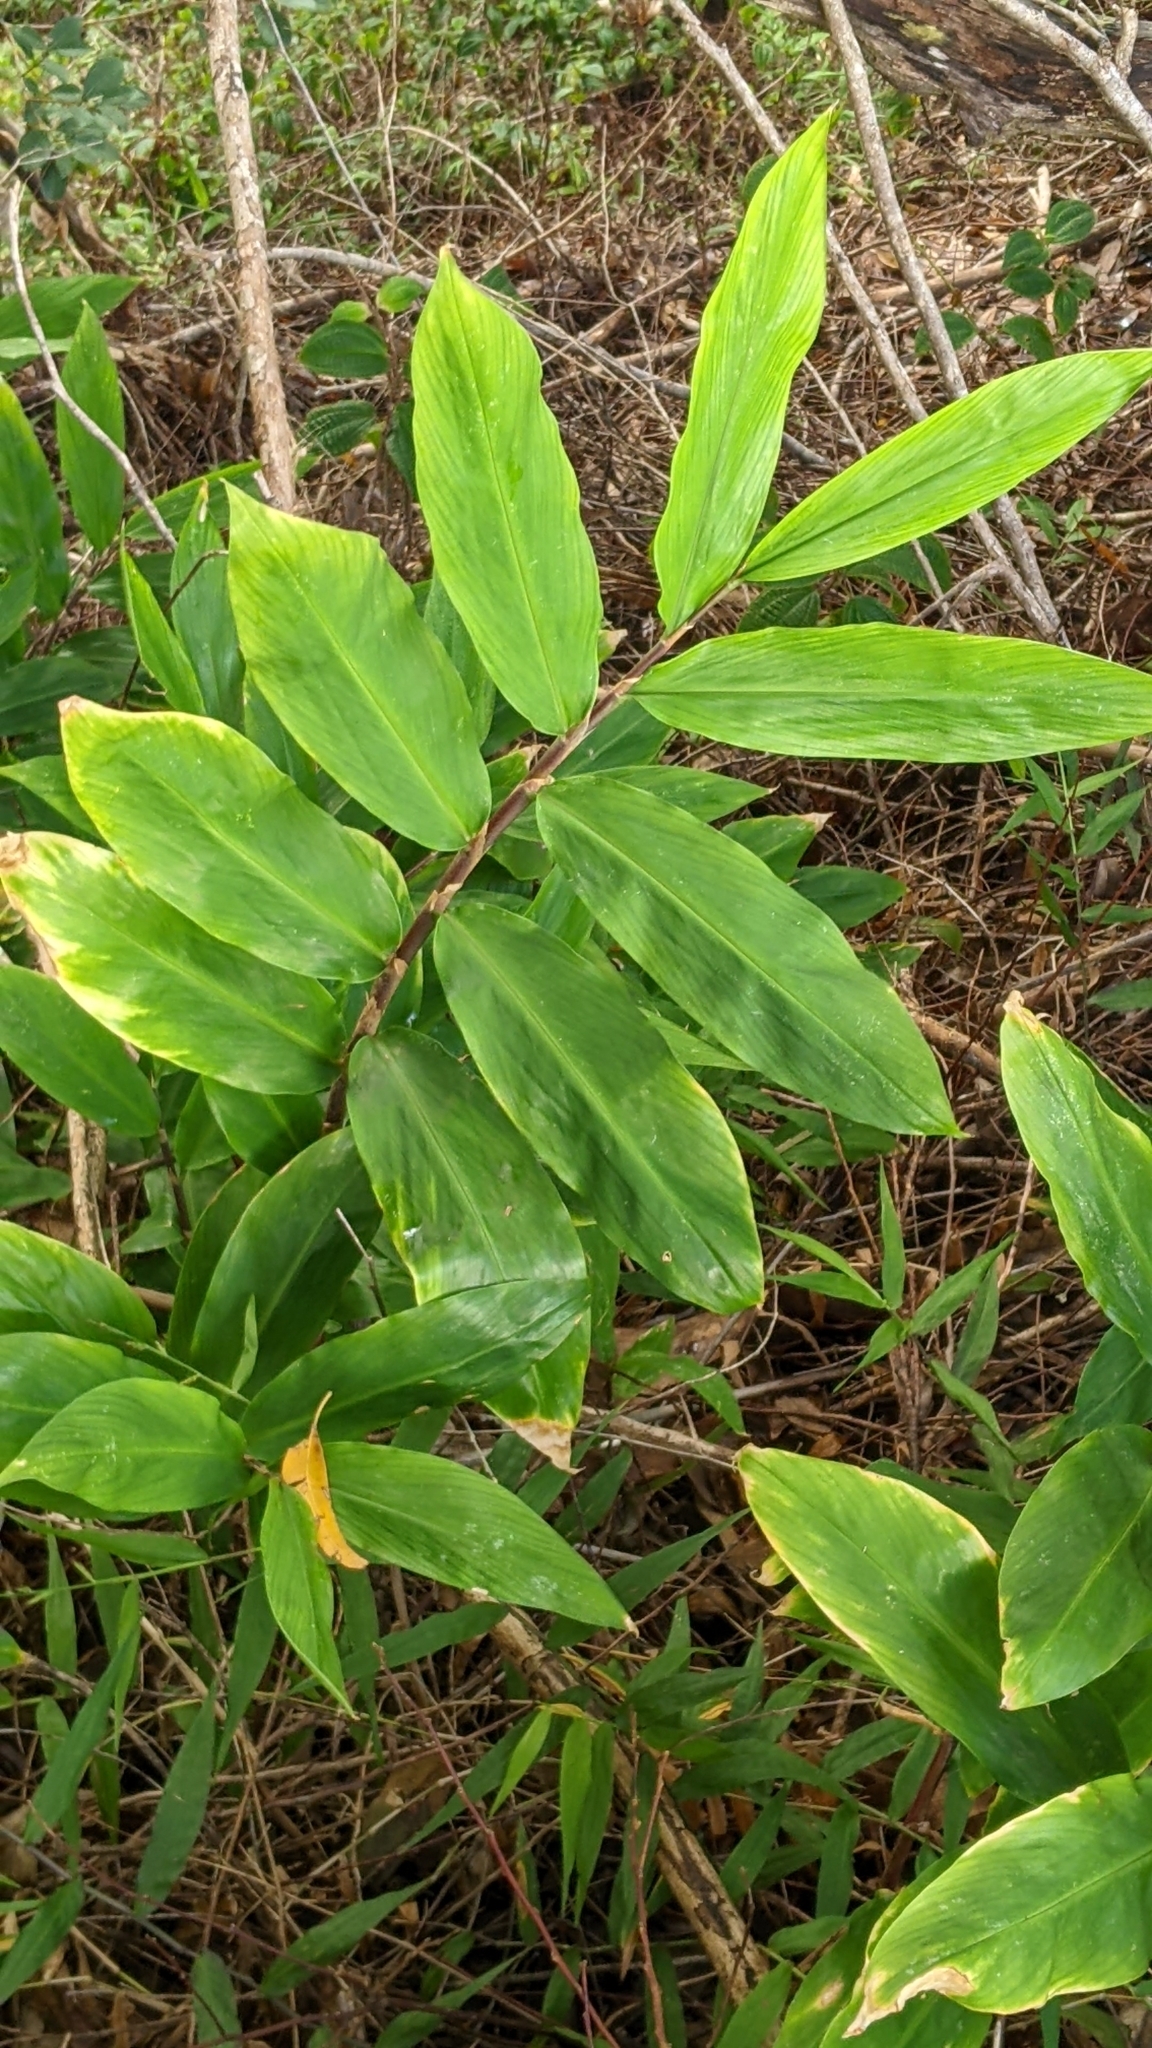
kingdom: Plantae
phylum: Tracheophyta
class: Liliopsida
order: Zingiberales
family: Zingiberaceae
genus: Zingiber
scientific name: Zingiber zerumbet
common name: Bitter ginger
